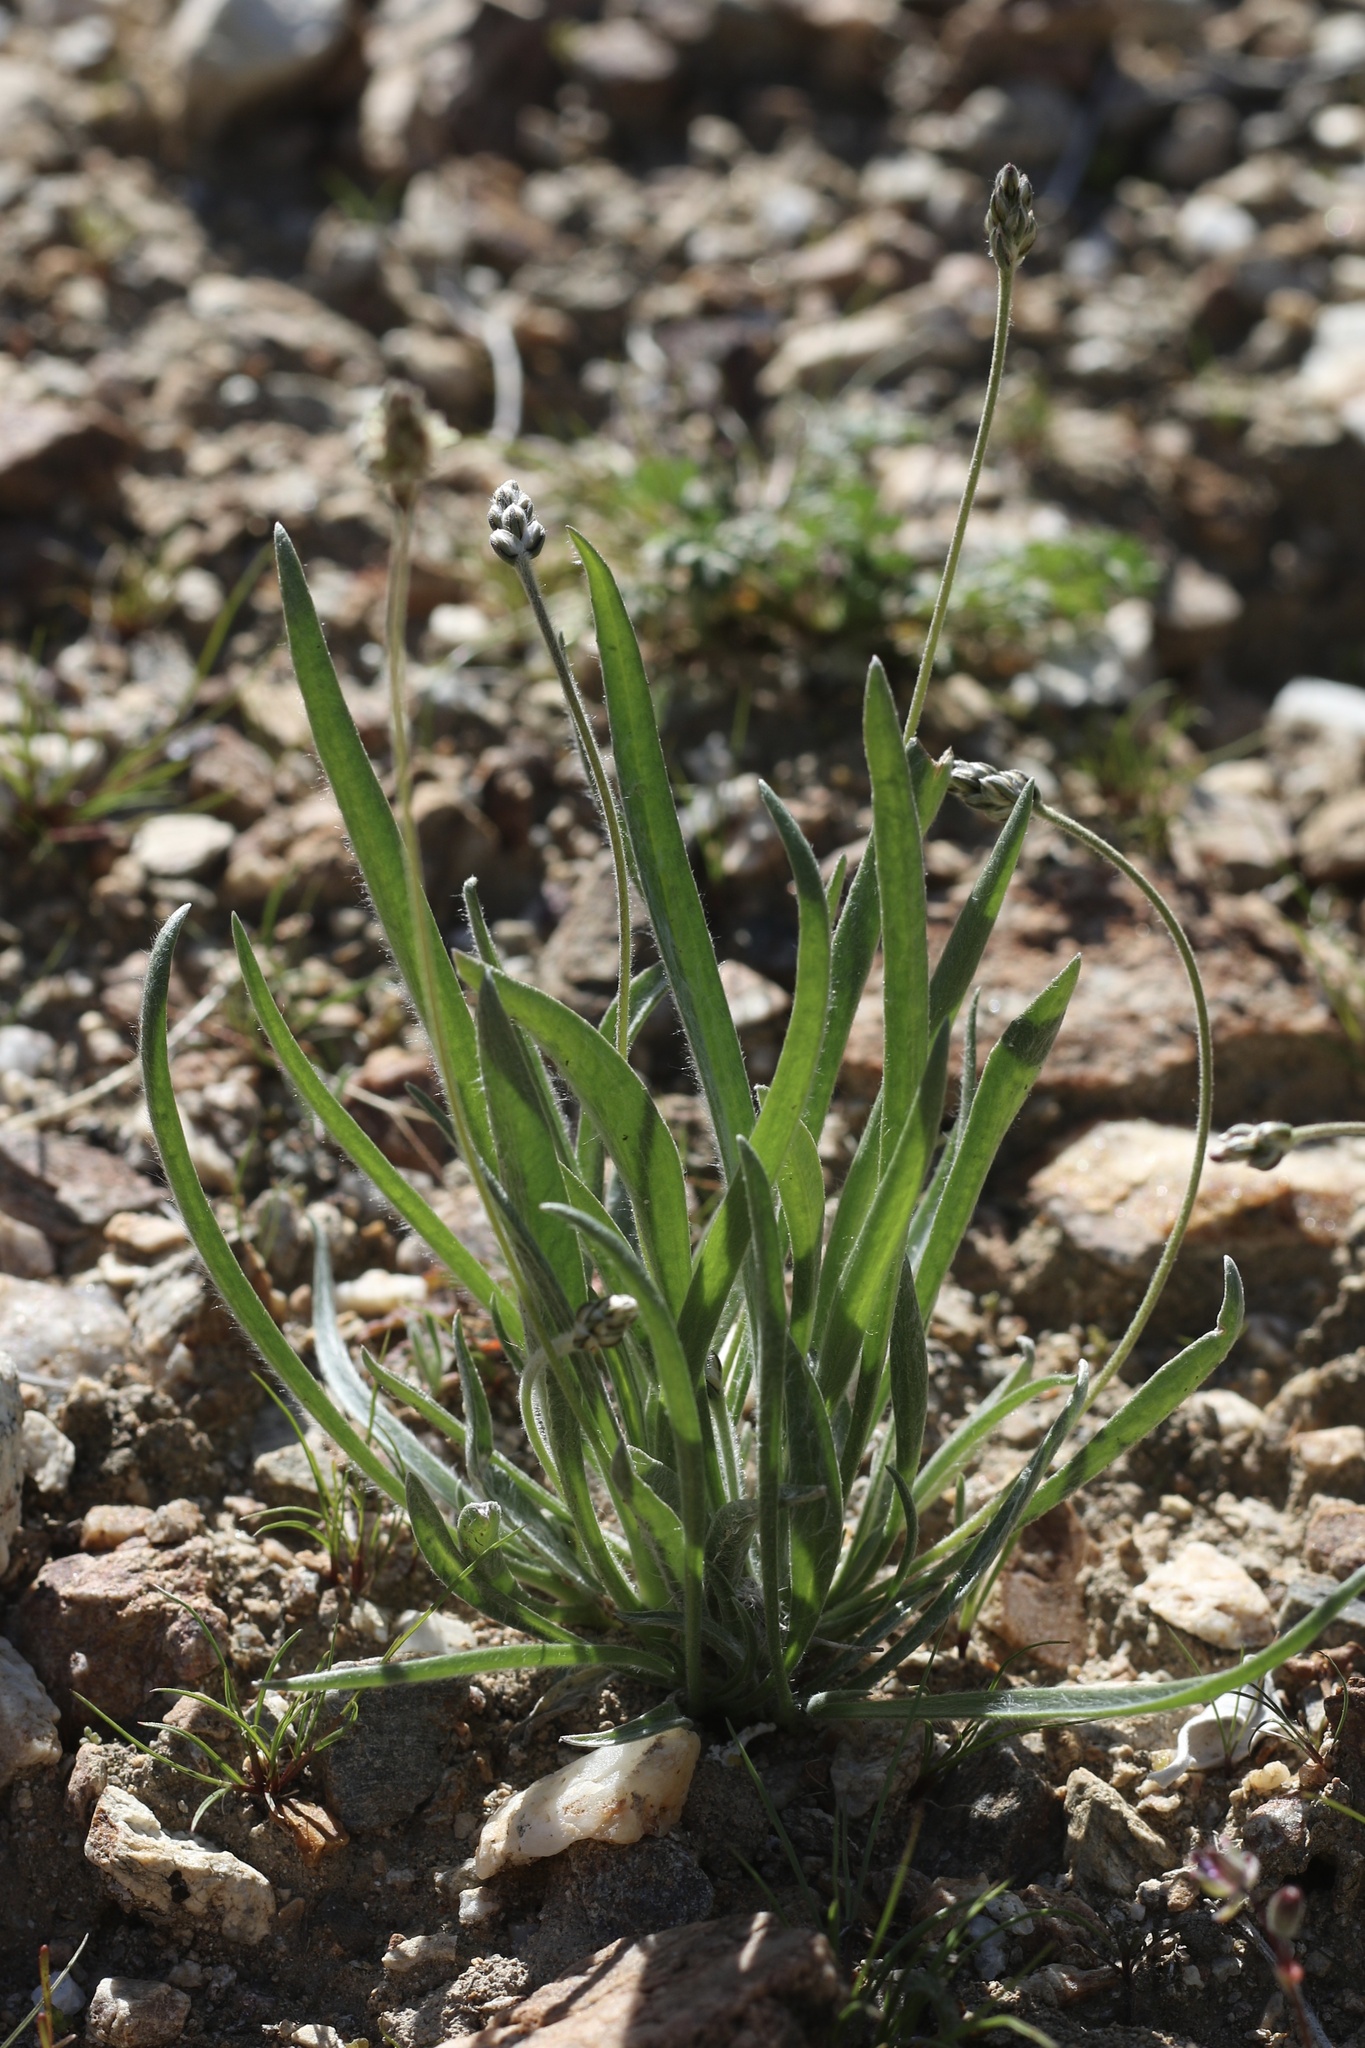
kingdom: Plantae
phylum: Tracheophyta
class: Magnoliopsida
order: Lamiales
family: Plantaginaceae
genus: Plantago
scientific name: Plantago ovata
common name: Blond plantain
